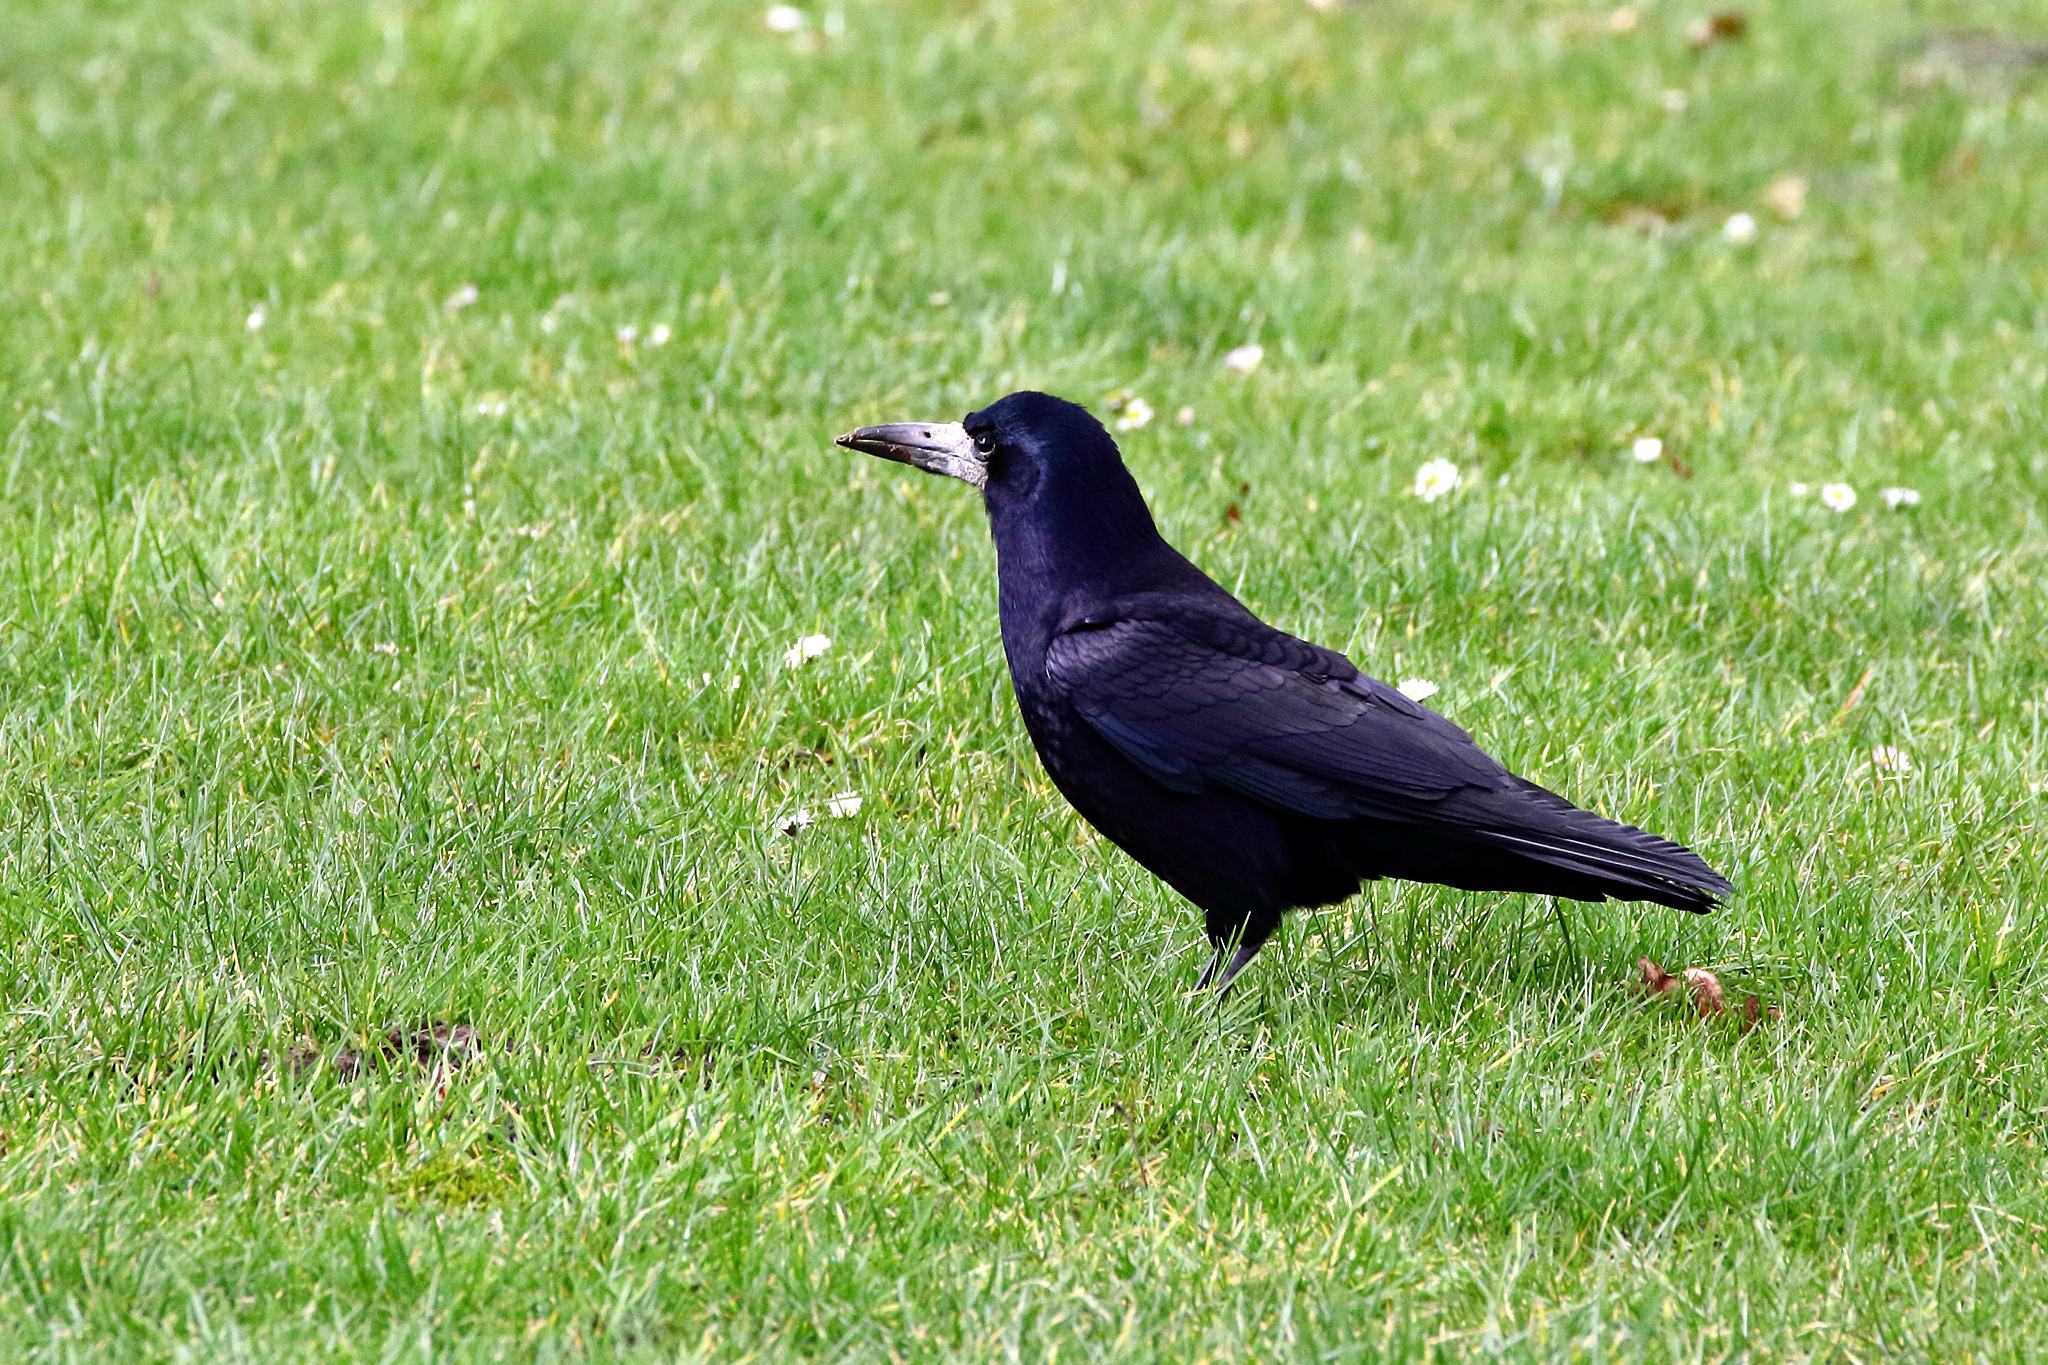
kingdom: Animalia
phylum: Chordata
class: Aves
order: Passeriformes
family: Corvidae
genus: Corvus
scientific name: Corvus frugilegus
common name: Rook
